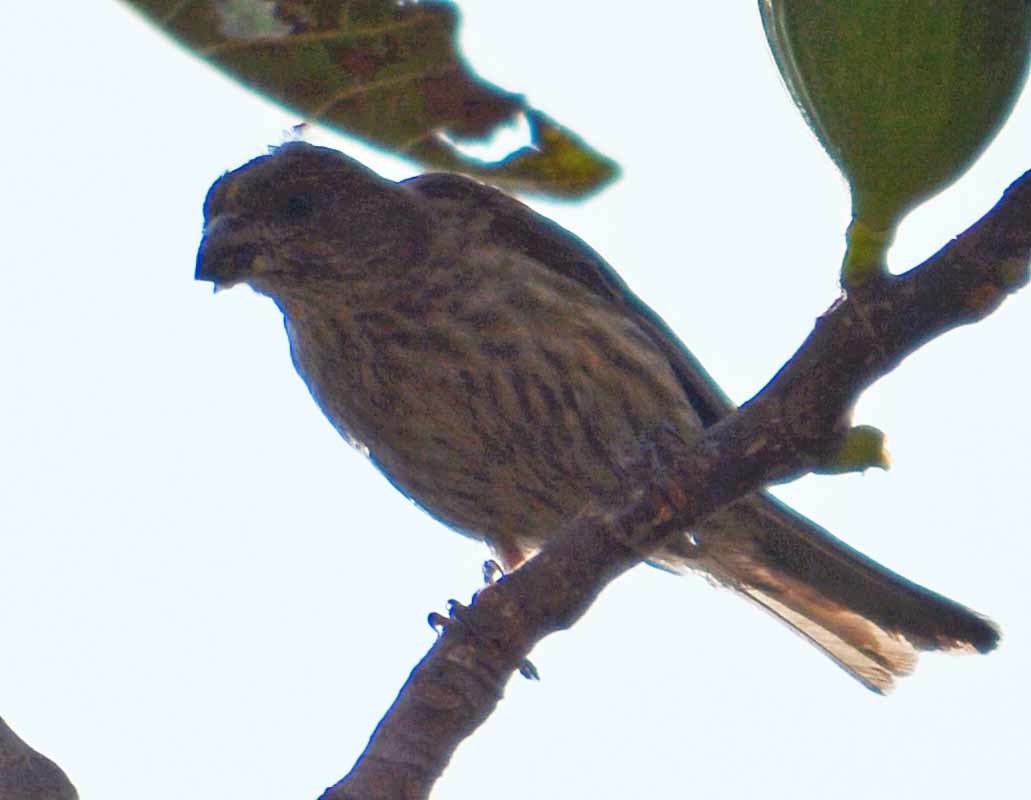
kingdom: Animalia
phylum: Chordata
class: Aves
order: Passeriformes
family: Fringillidae
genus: Haemorhous
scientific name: Haemorhous mexicanus
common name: House finch
